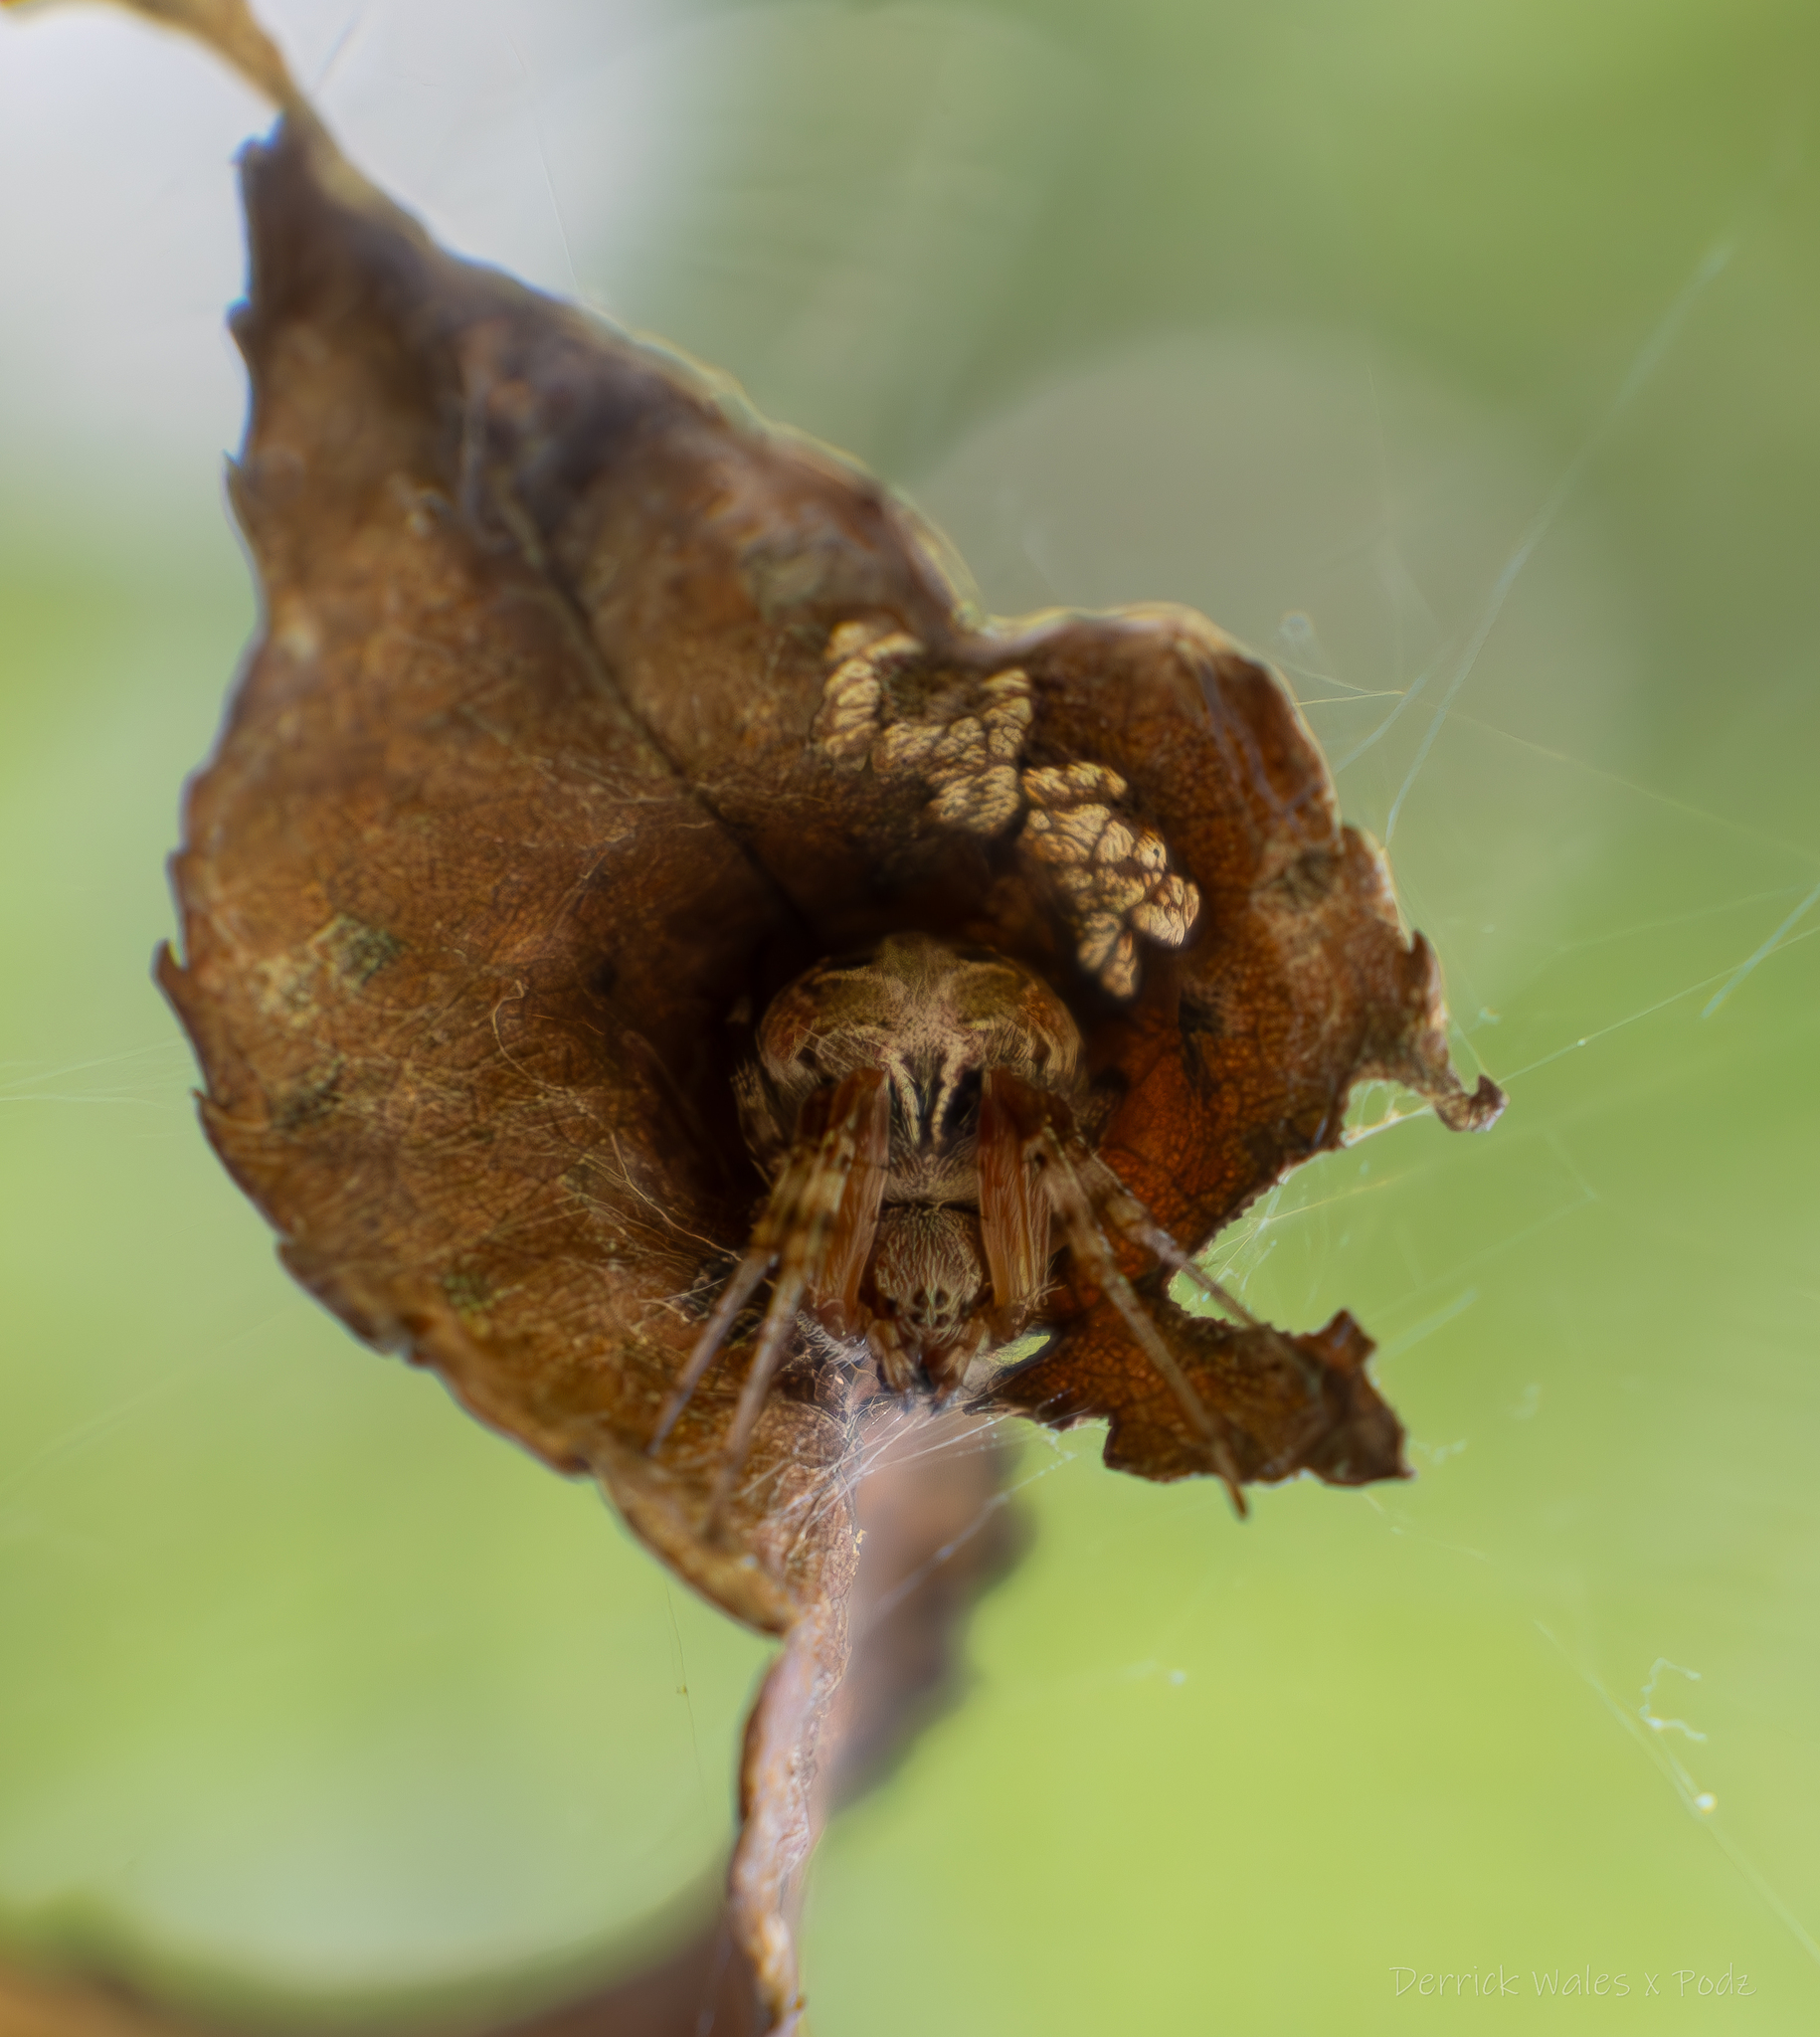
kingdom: Animalia
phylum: Arthropoda
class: Arachnida
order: Araneae
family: Araneidae
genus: Metepeira
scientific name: Metepeira labyrinthea
